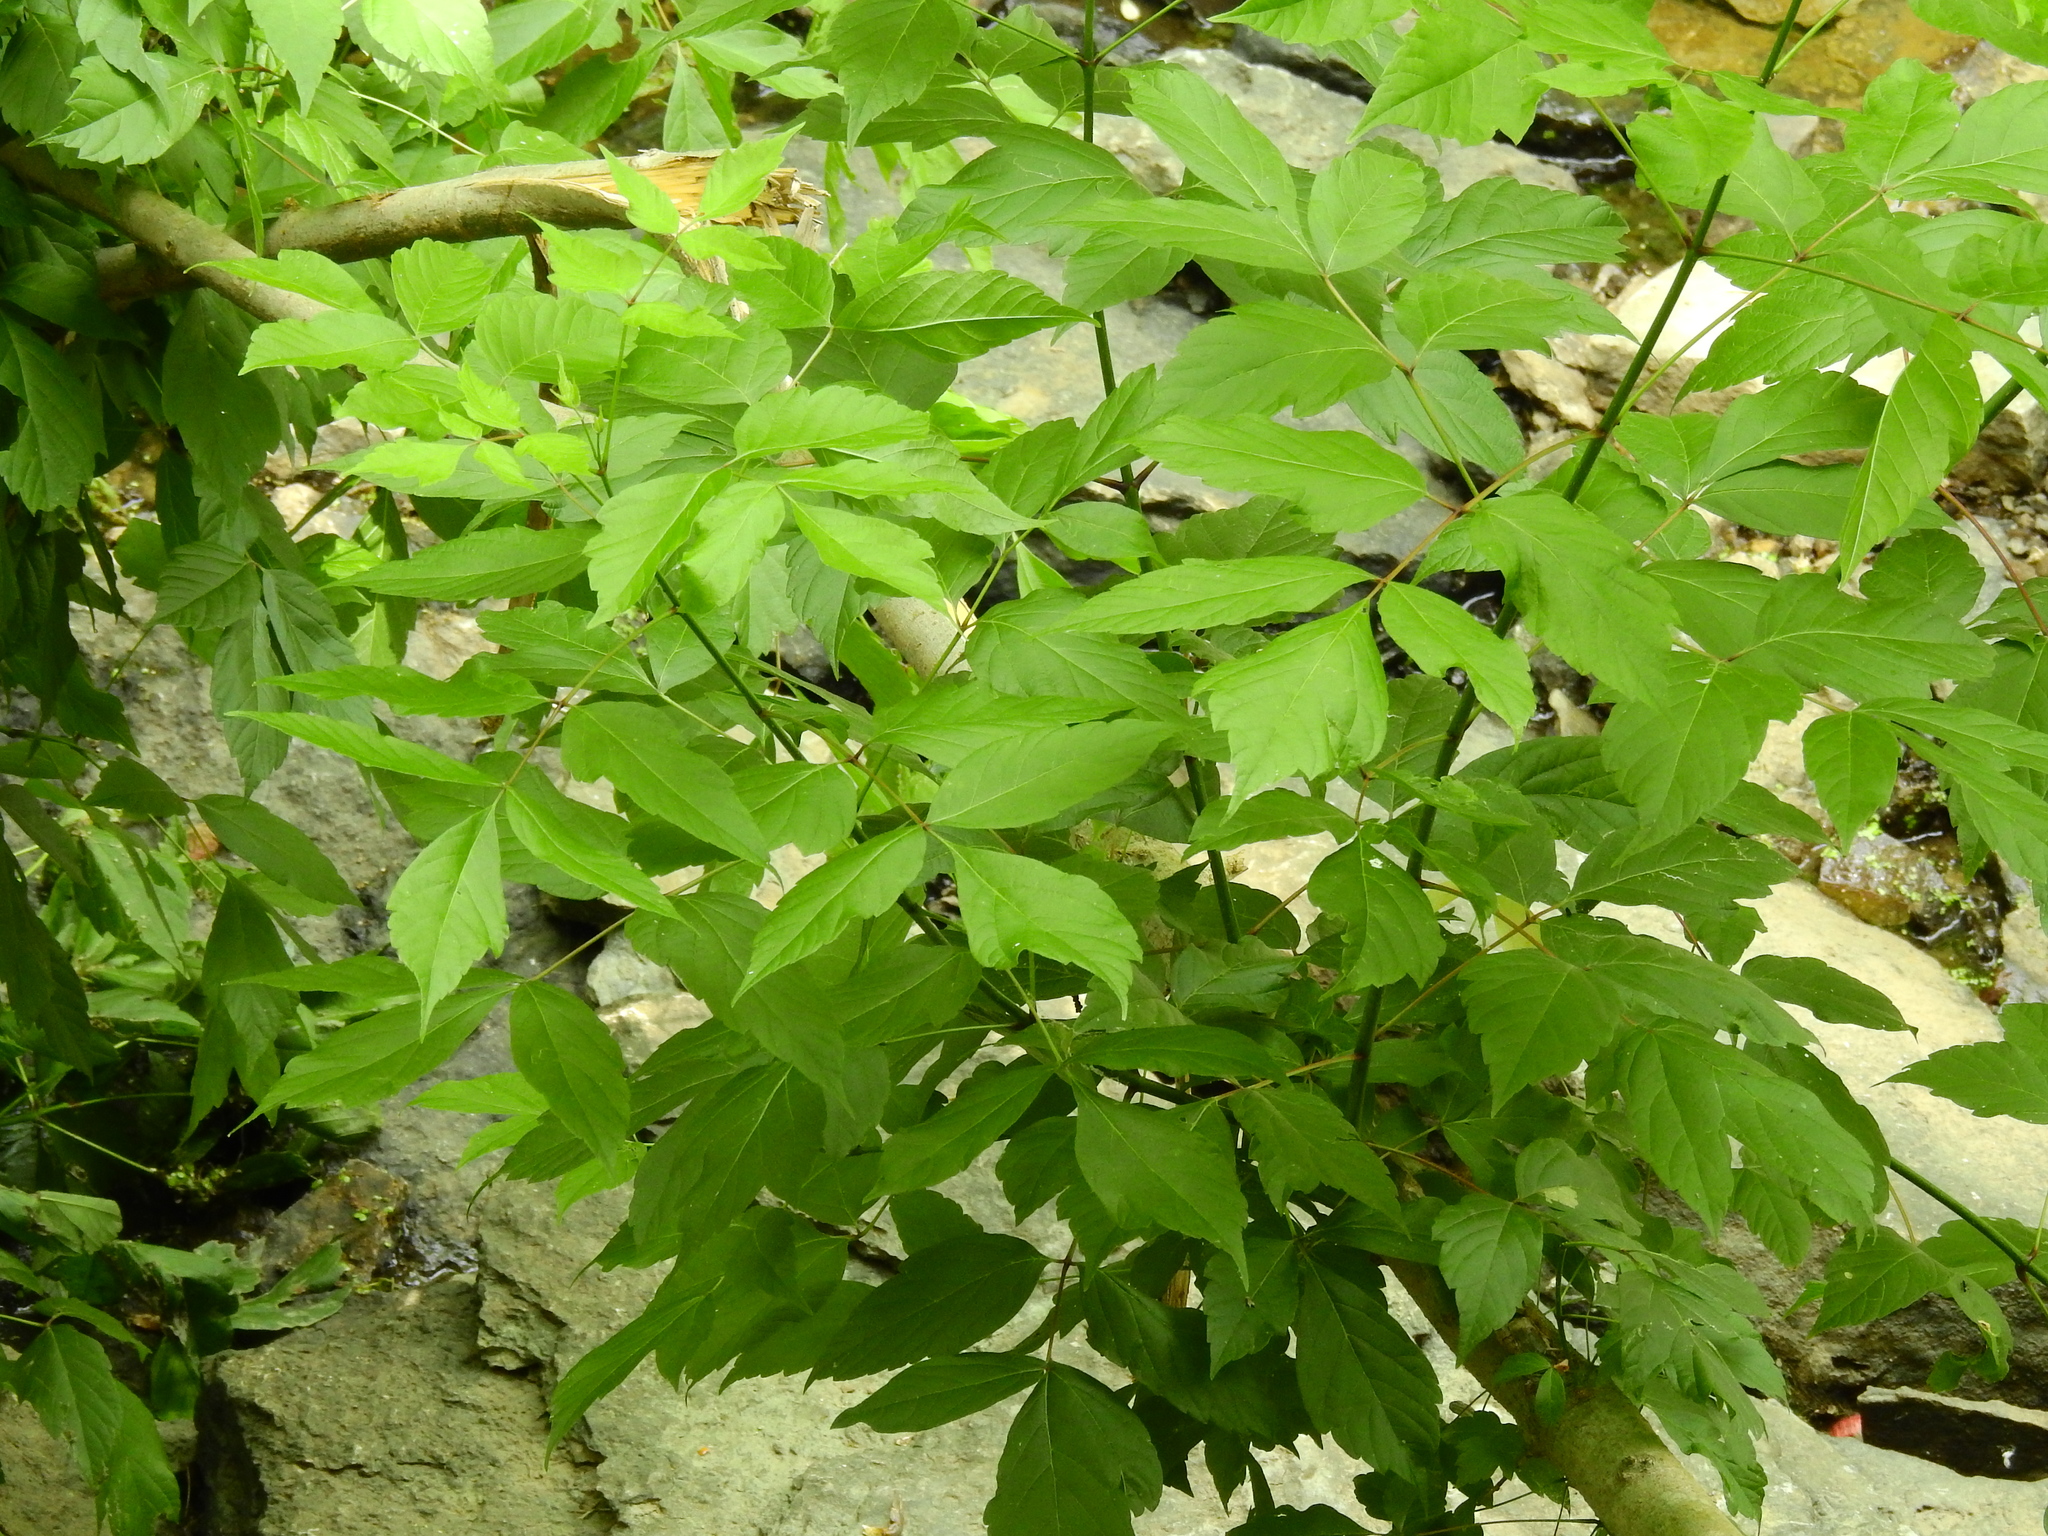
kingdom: Plantae
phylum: Tracheophyta
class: Magnoliopsida
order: Sapindales
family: Sapindaceae
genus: Acer
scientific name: Acer negundo
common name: Ashleaf maple
